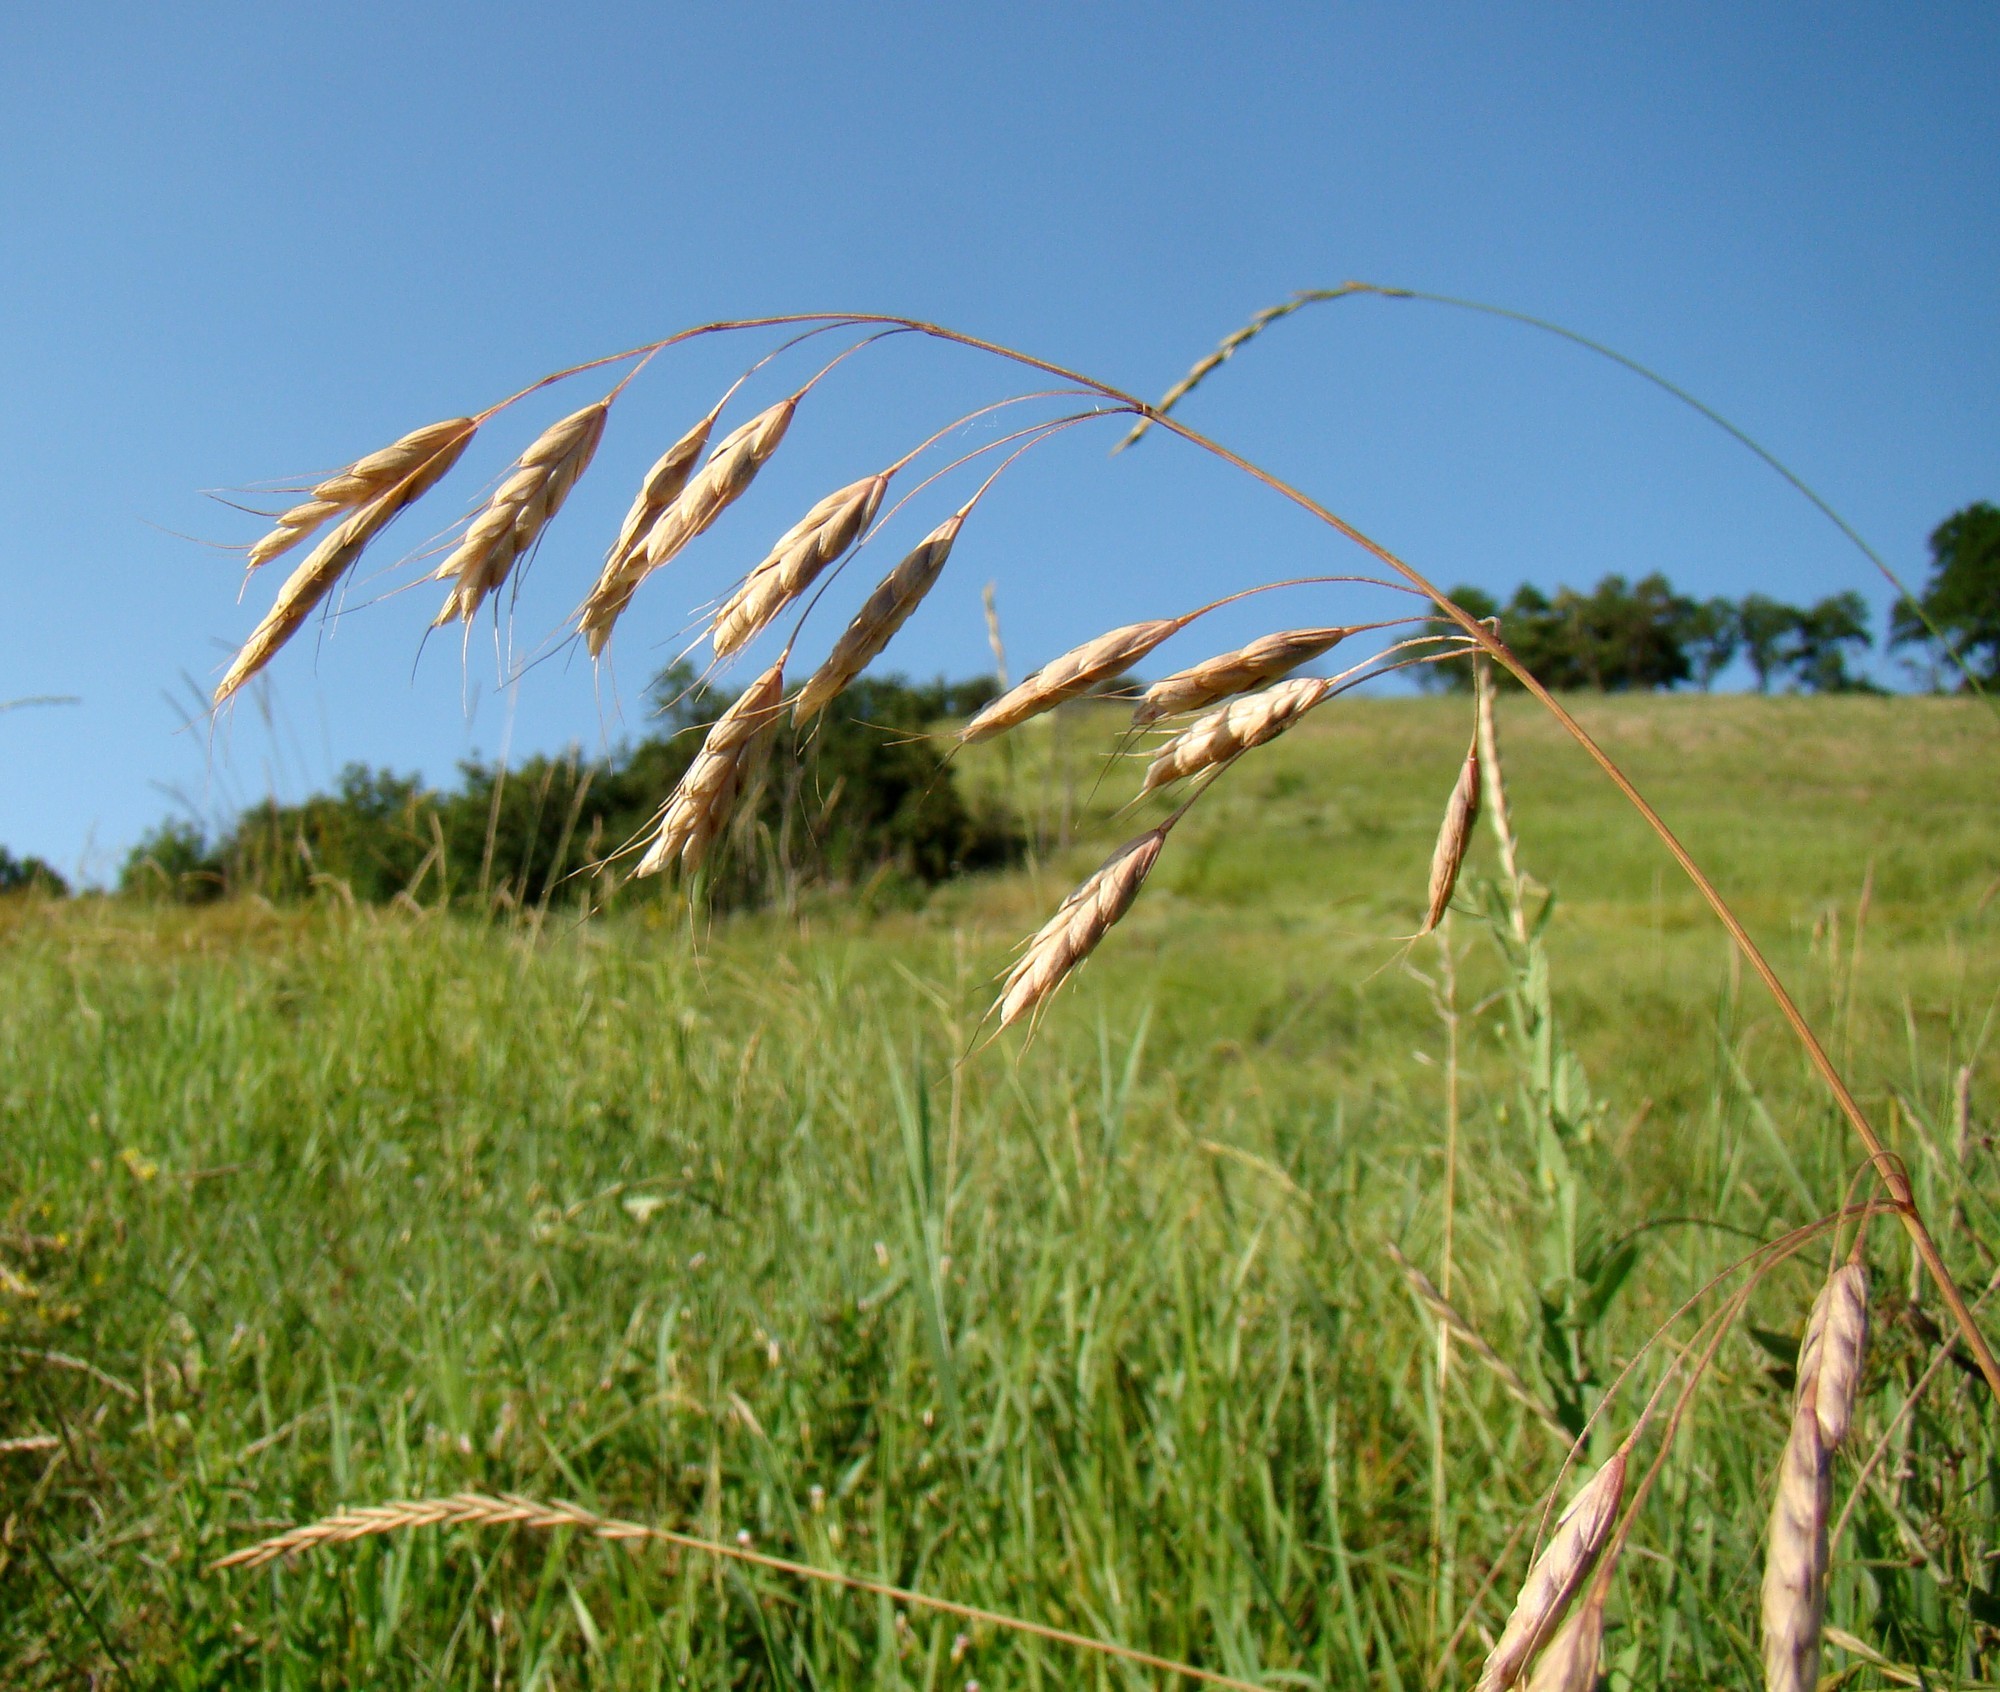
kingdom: Plantae
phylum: Tracheophyta
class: Liliopsida
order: Poales
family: Poaceae
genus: Bromus
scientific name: Bromus squarrosus
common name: Corn brome
